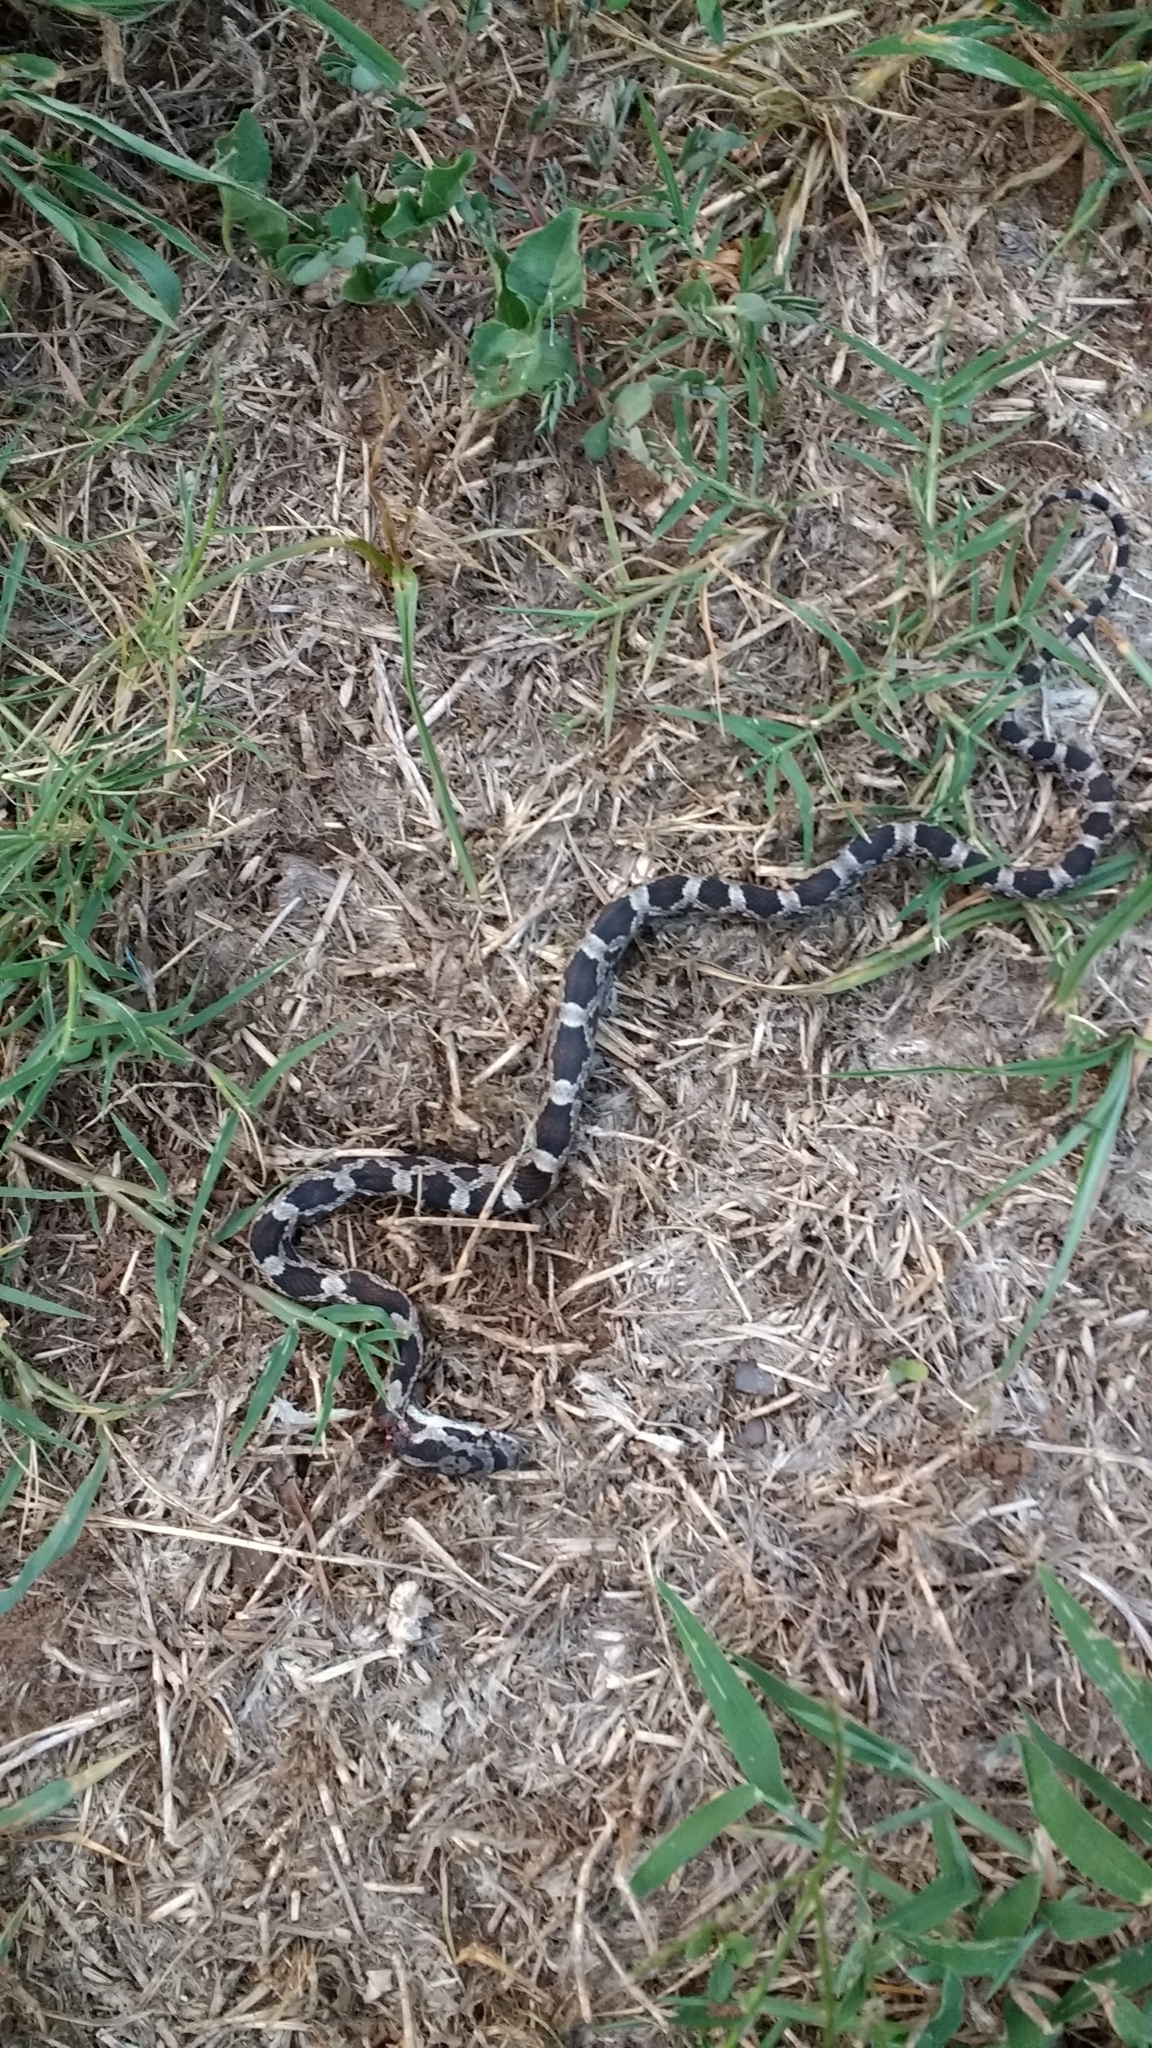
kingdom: Animalia
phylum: Chordata
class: Squamata
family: Colubridae
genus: Pantherophis
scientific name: Pantherophis obsoletus
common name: Black rat snake
